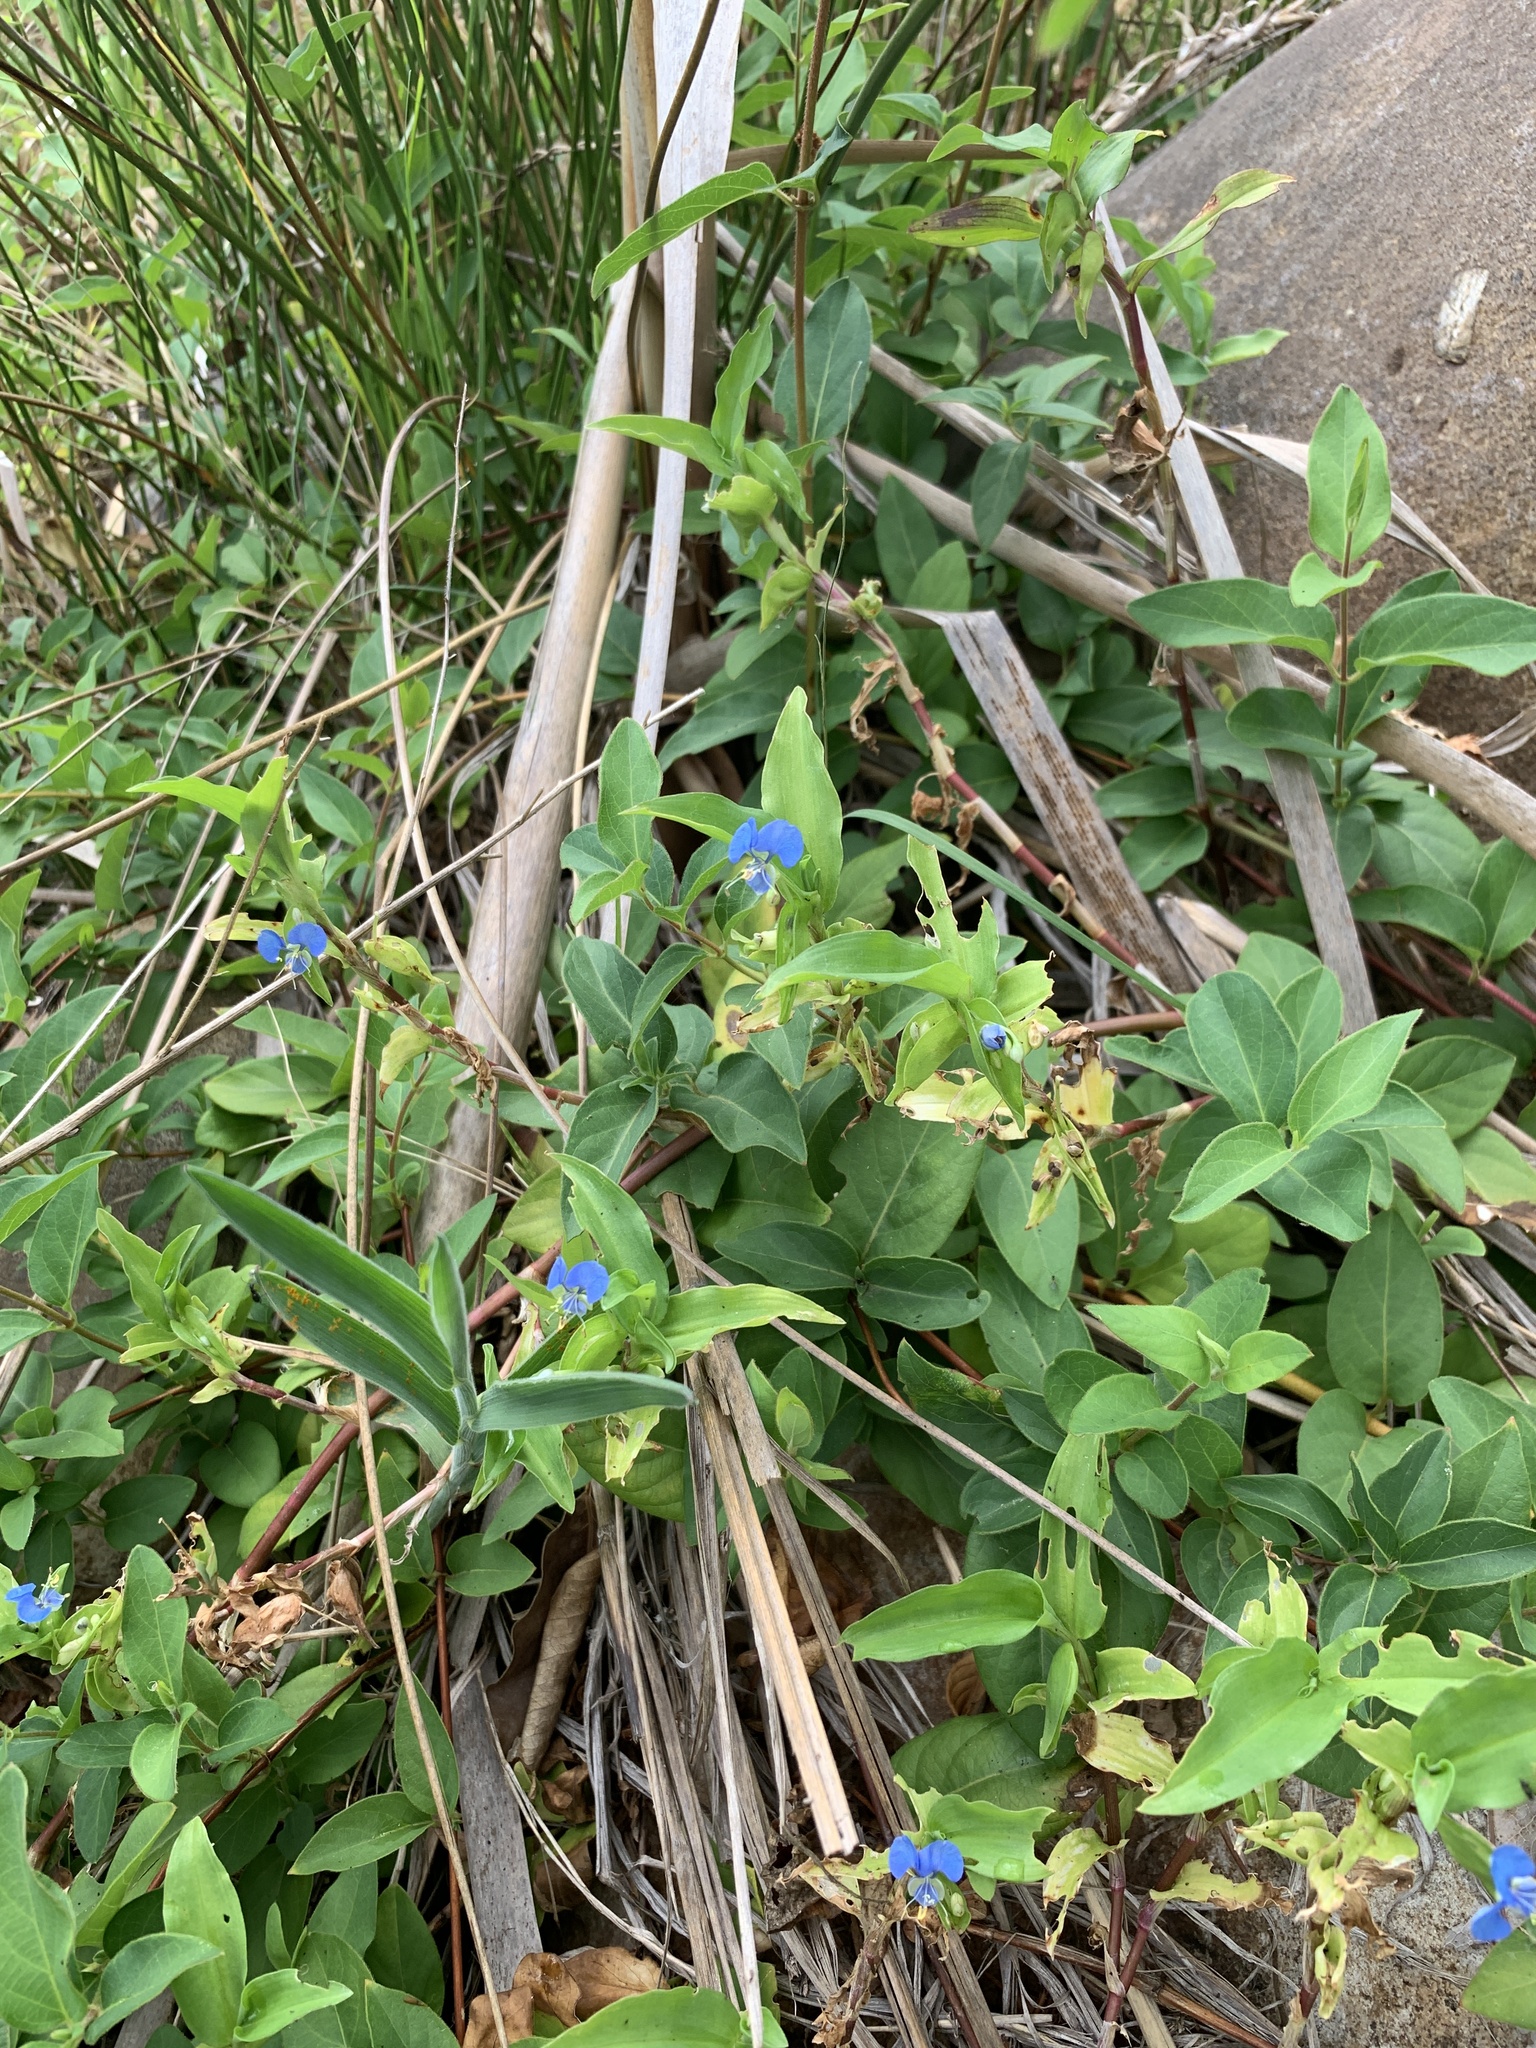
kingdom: Plantae
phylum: Tracheophyta
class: Liliopsida
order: Commelinales
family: Commelinaceae
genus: Commelina
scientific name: Commelina diffusa
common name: Climbing dayflower
